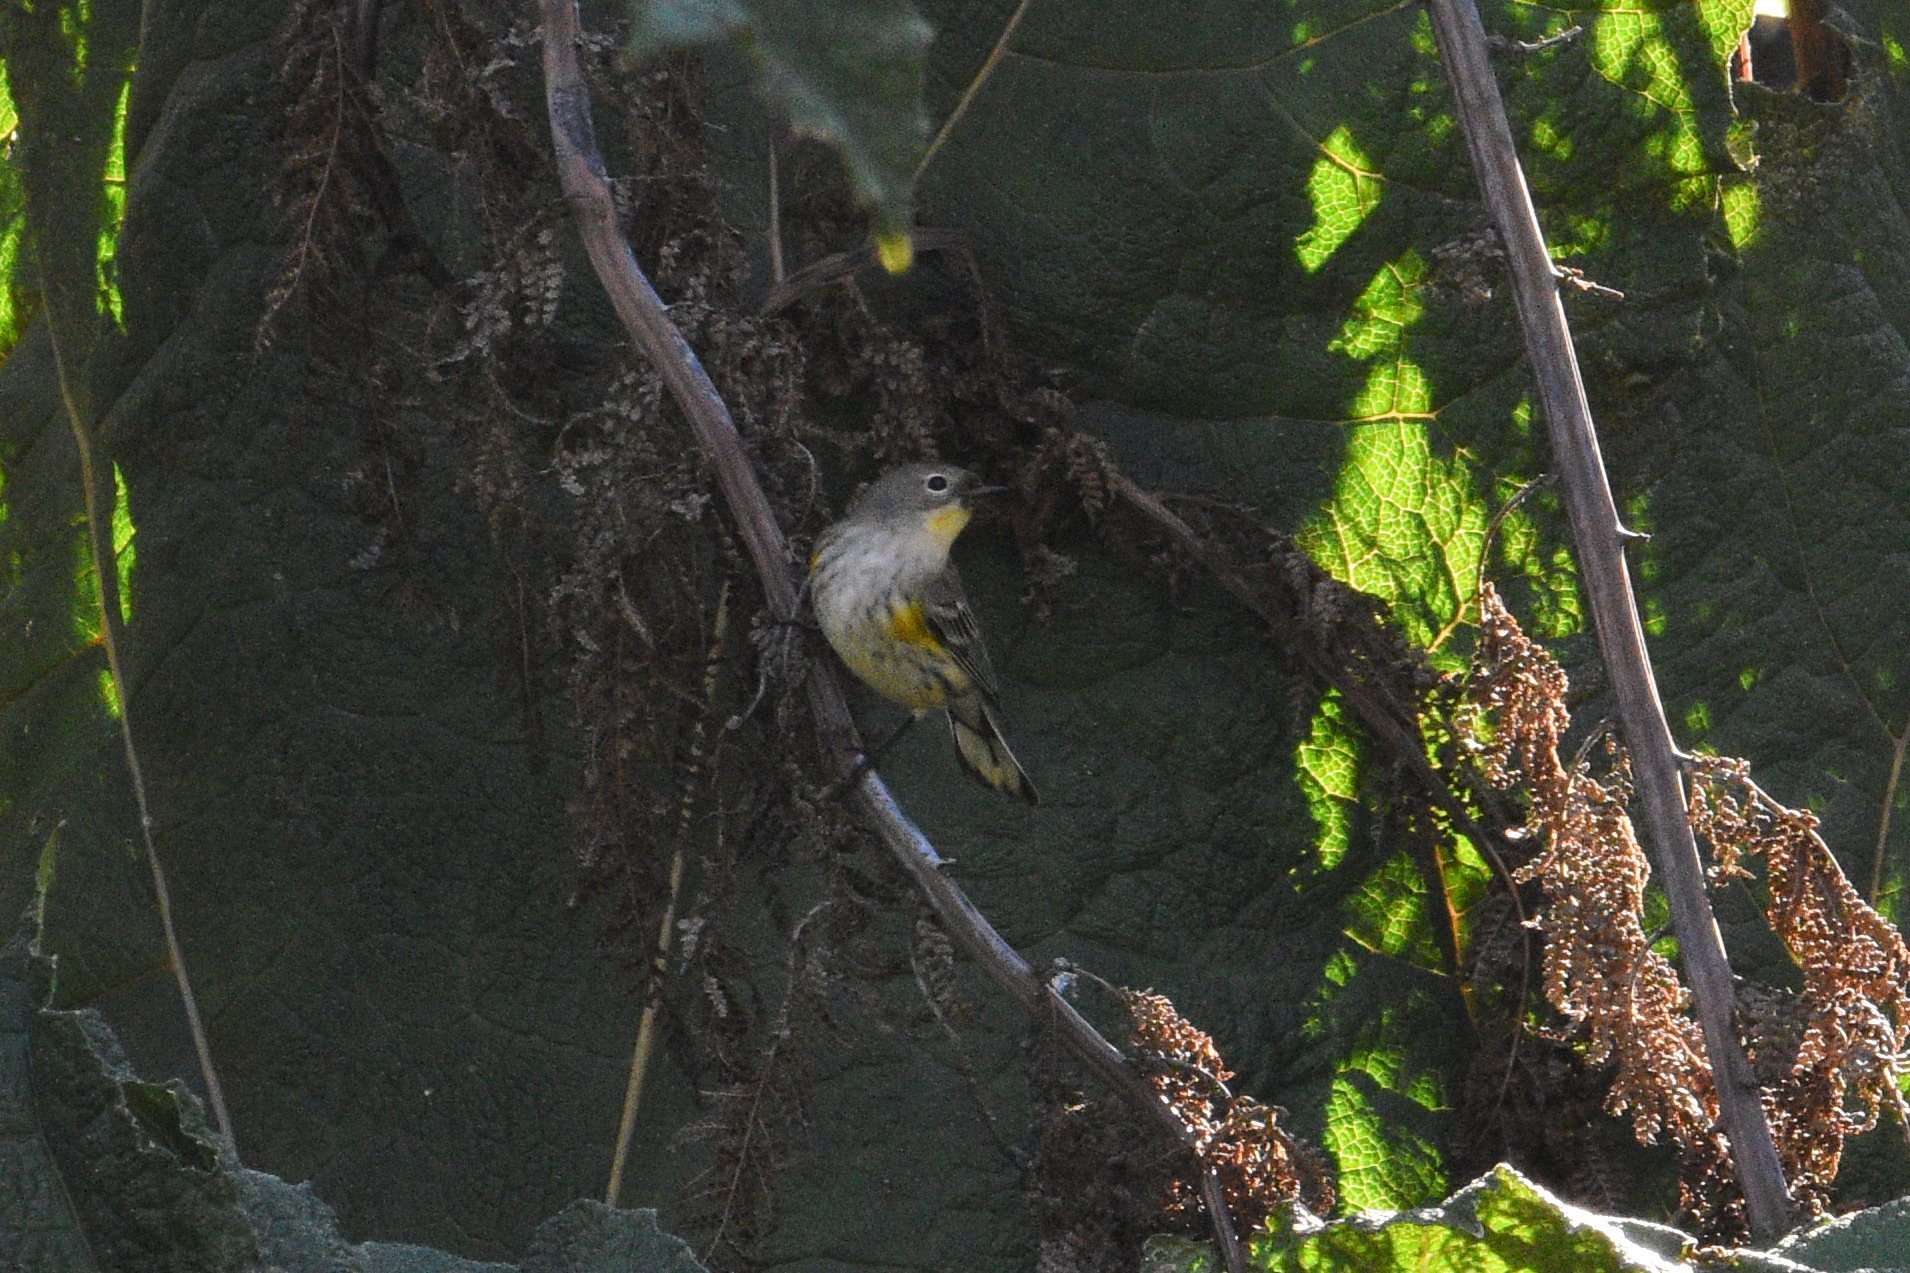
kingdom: Animalia
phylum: Chordata
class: Aves
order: Passeriformes
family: Parulidae
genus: Setophaga
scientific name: Setophaga coronata
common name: Myrtle warbler
